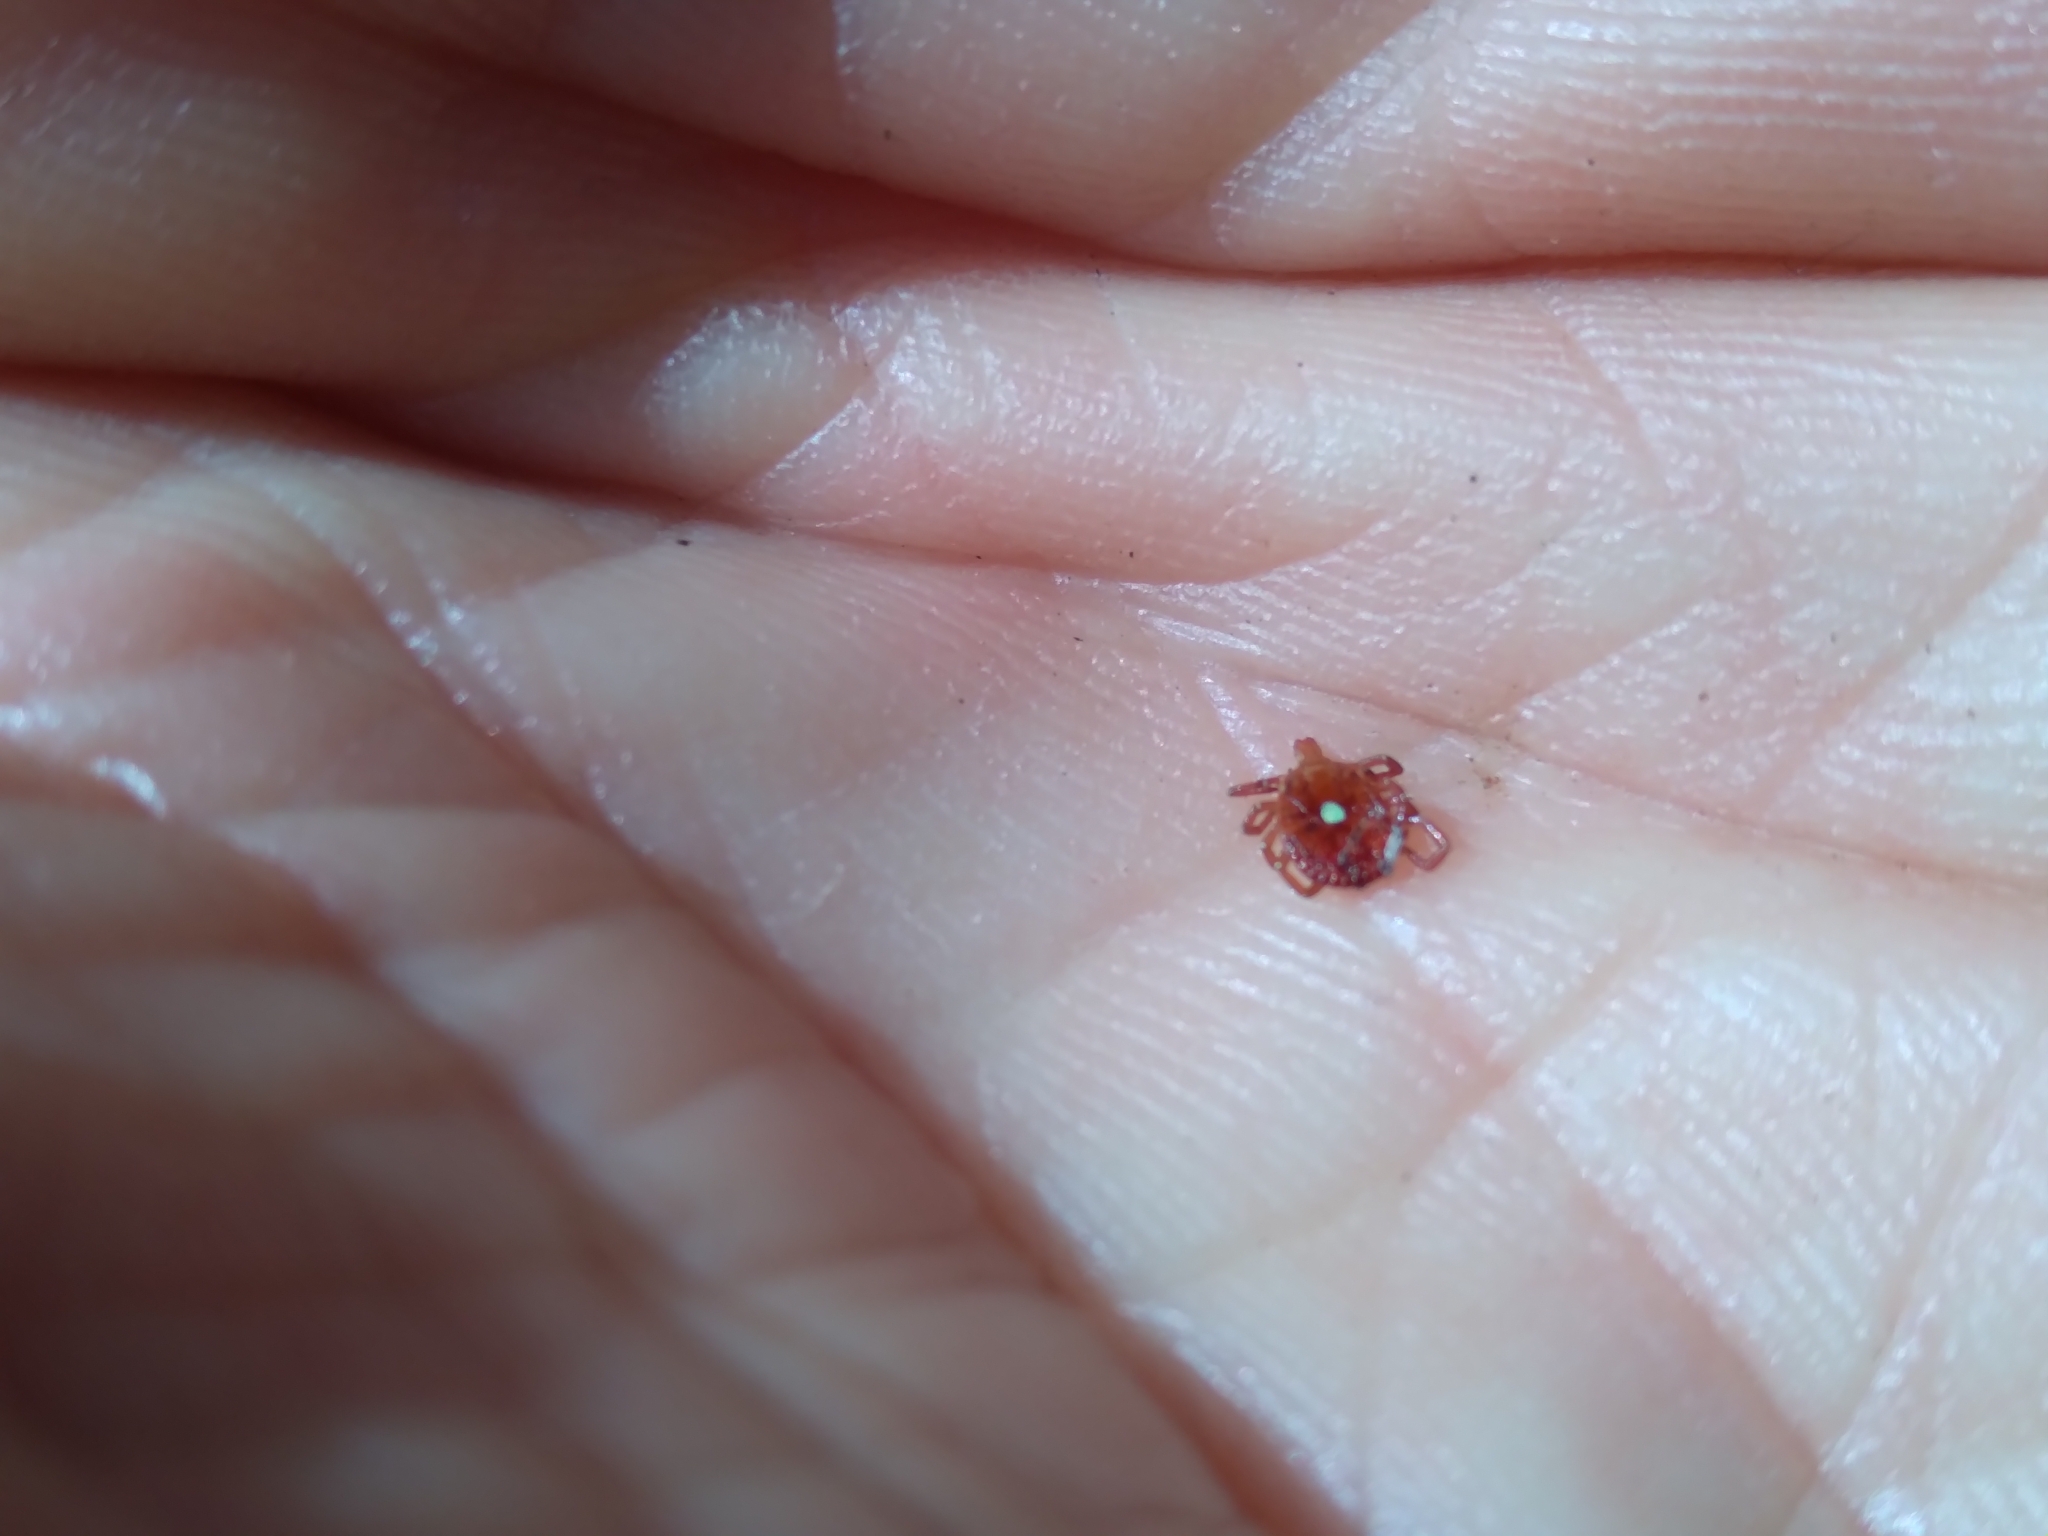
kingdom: Animalia
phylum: Arthropoda
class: Arachnida
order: Ixodida
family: Ixodidae
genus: Amblyomma
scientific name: Amblyomma americanum
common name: Lone star tick
